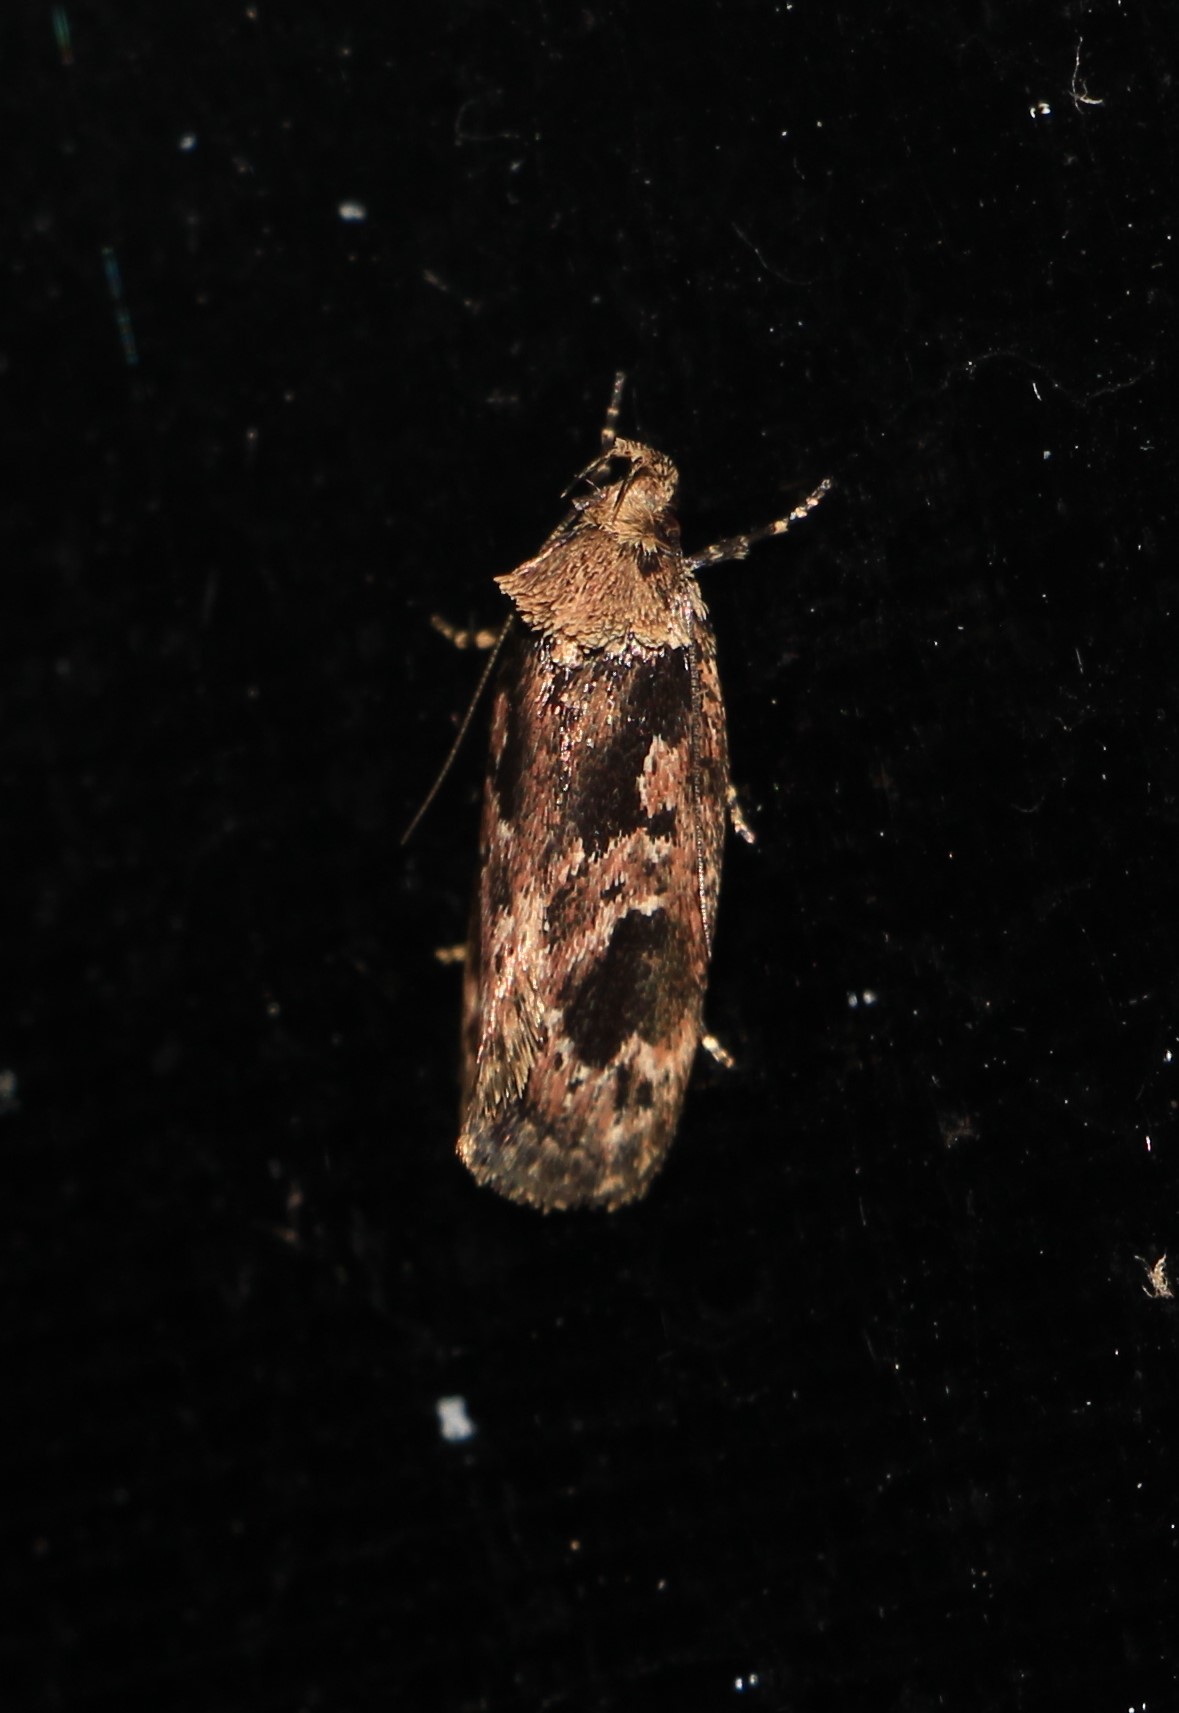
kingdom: Animalia
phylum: Arthropoda
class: Insecta
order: Lepidoptera
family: Oecophoridae
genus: Barea
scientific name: Barea consignatella
